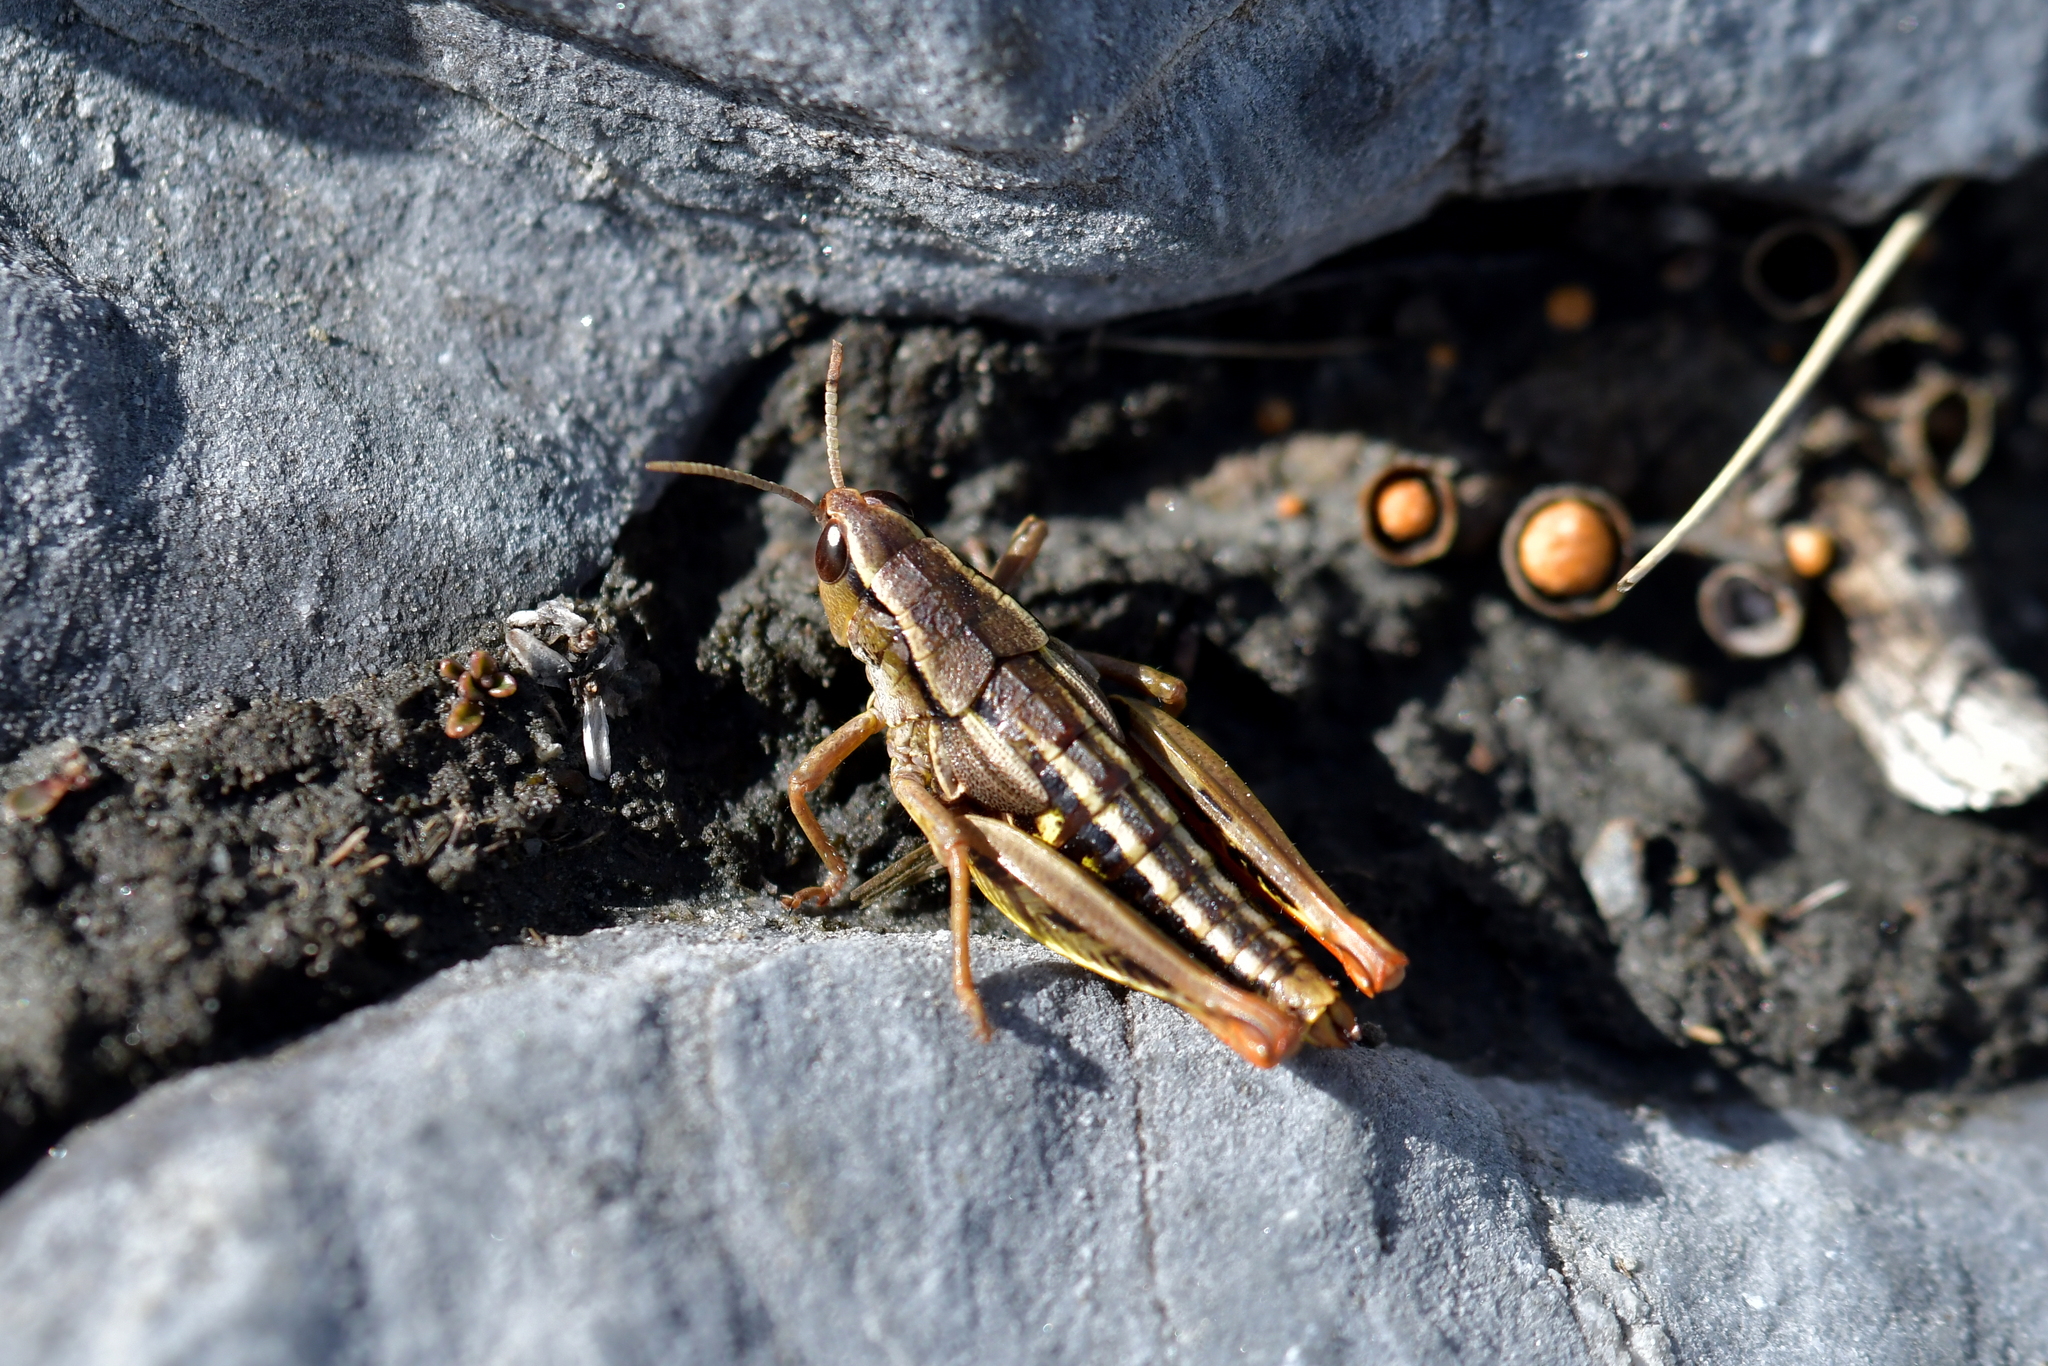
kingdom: Animalia
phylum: Arthropoda
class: Insecta
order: Orthoptera
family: Acrididae
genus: Sigaus
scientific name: Sigaus
